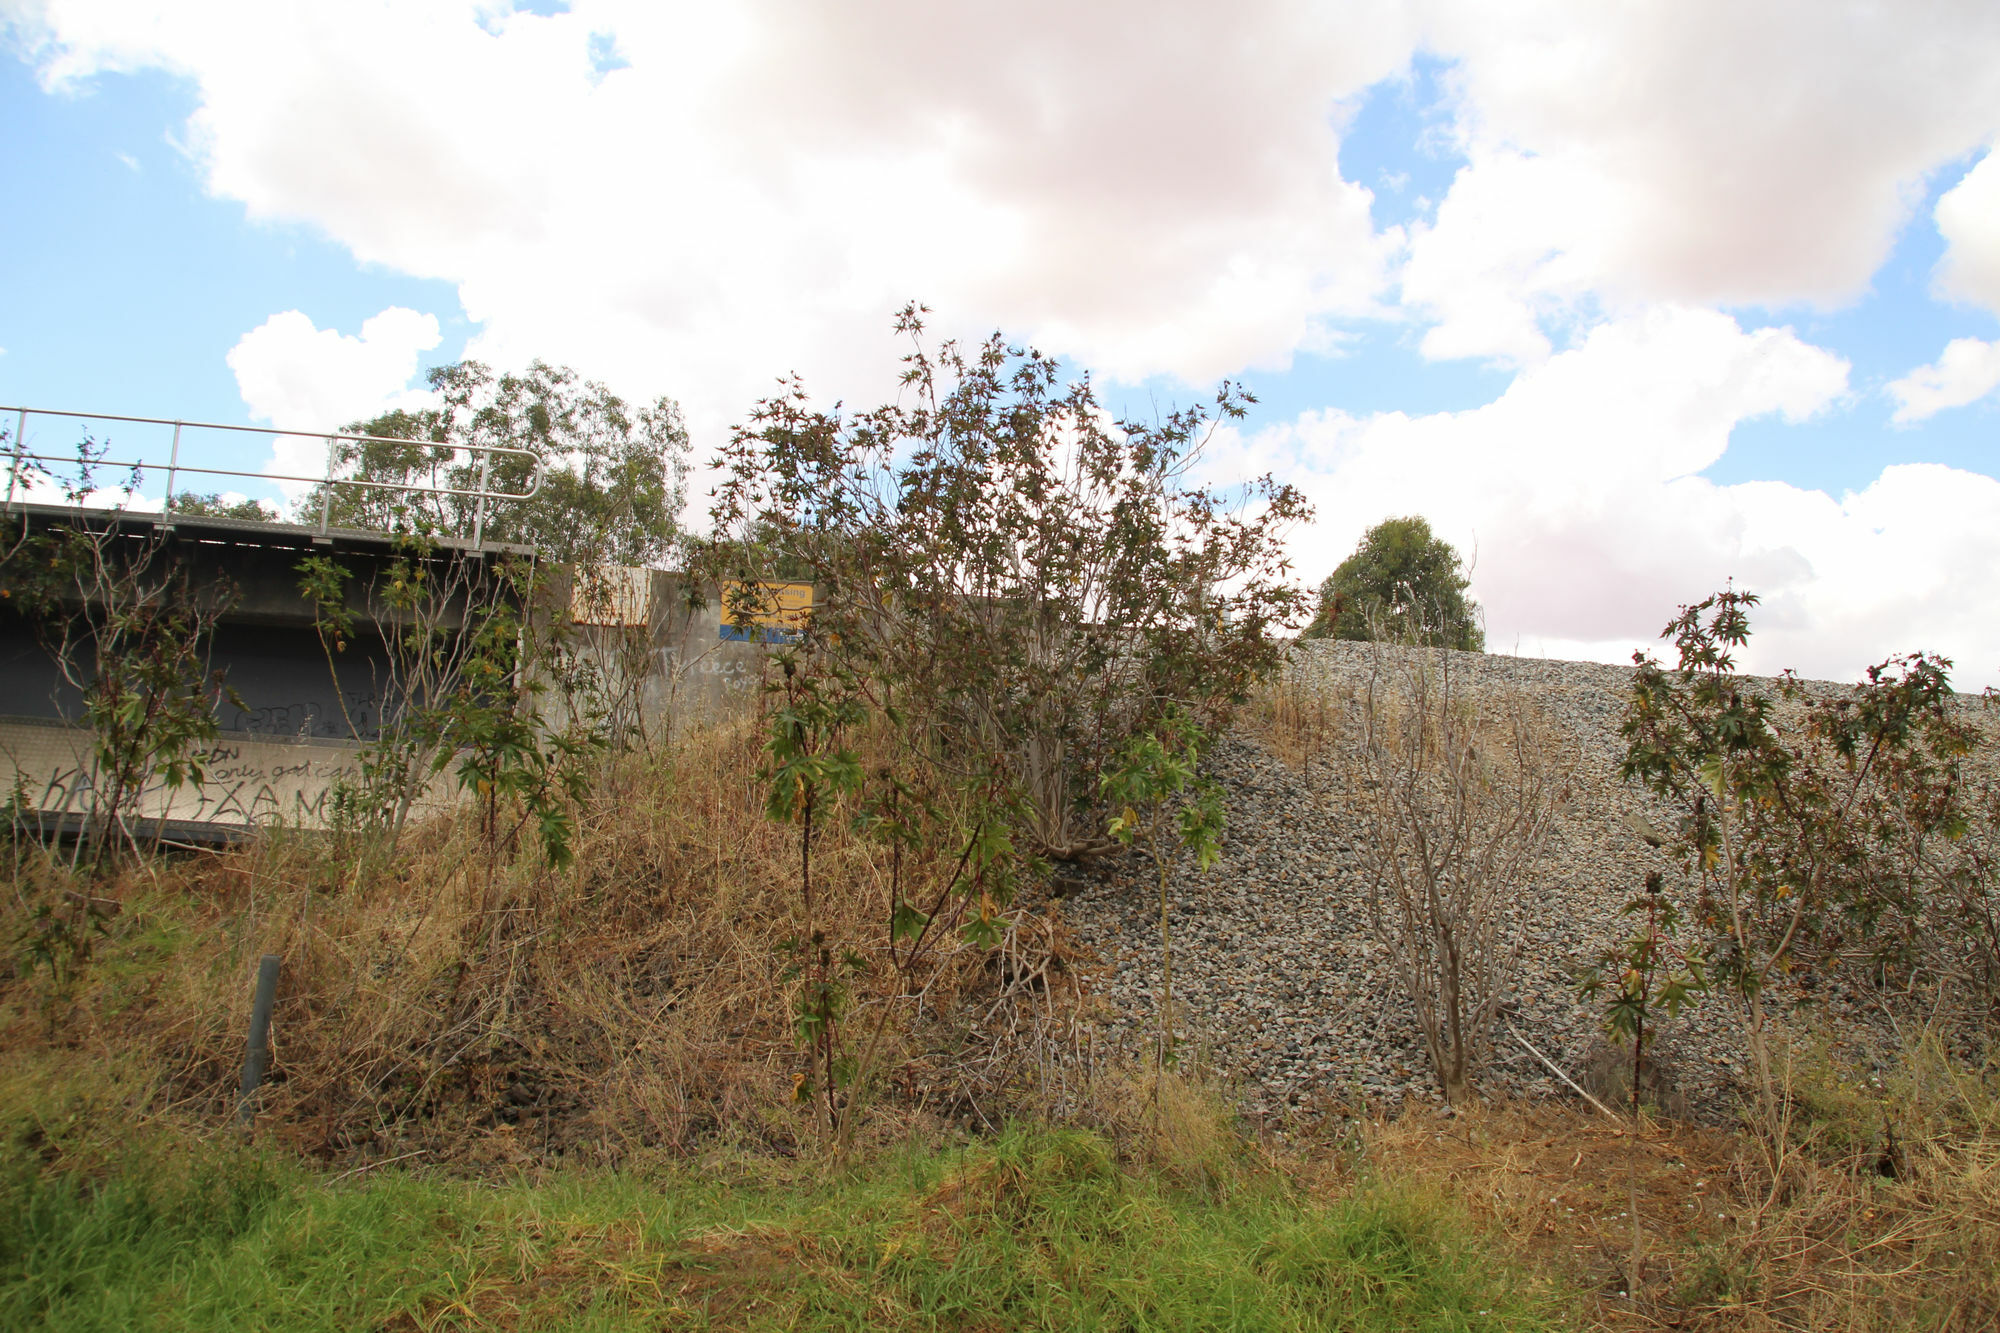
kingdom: Plantae
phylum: Tracheophyta
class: Magnoliopsida
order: Malpighiales
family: Euphorbiaceae
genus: Ricinus
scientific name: Ricinus communis
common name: Castor-oil-plant
